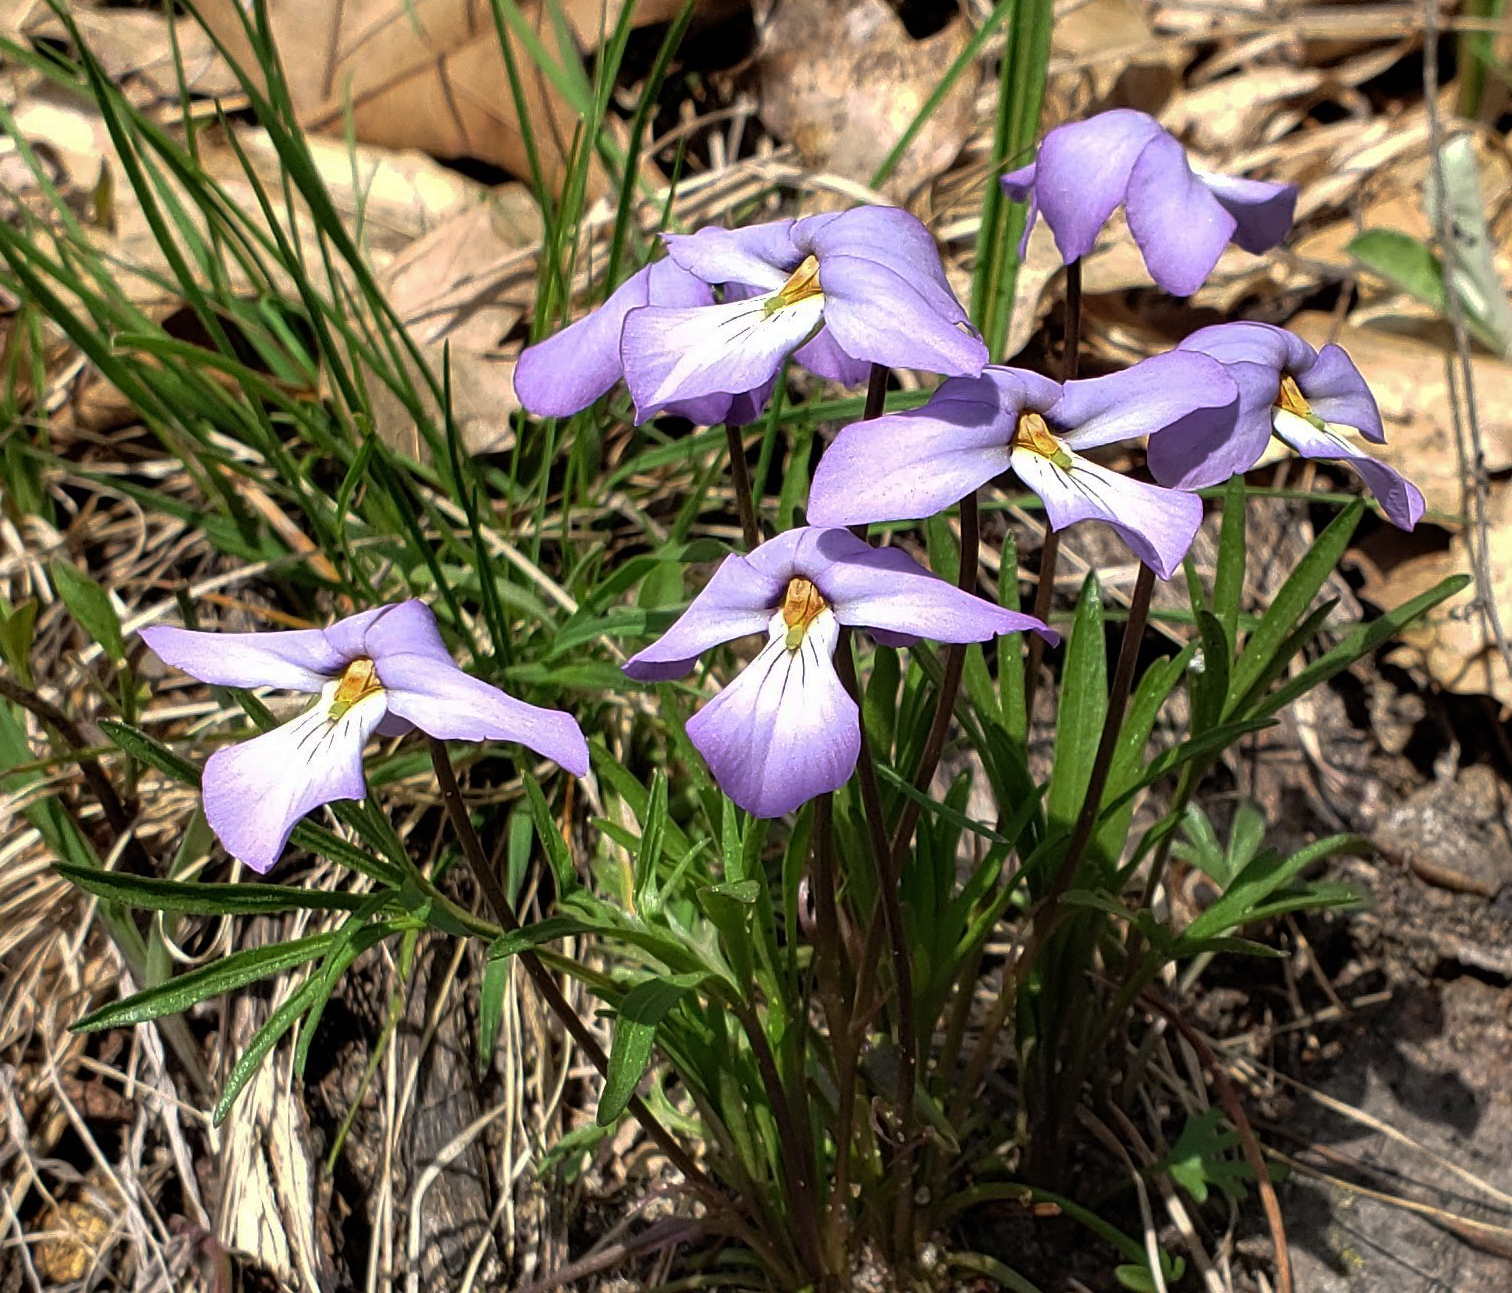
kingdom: Plantae
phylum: Tracheophyta
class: Magnoliopsida
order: Malpighiales
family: Violaceae
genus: Viola
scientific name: Viola pedata
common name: Pansy violet
